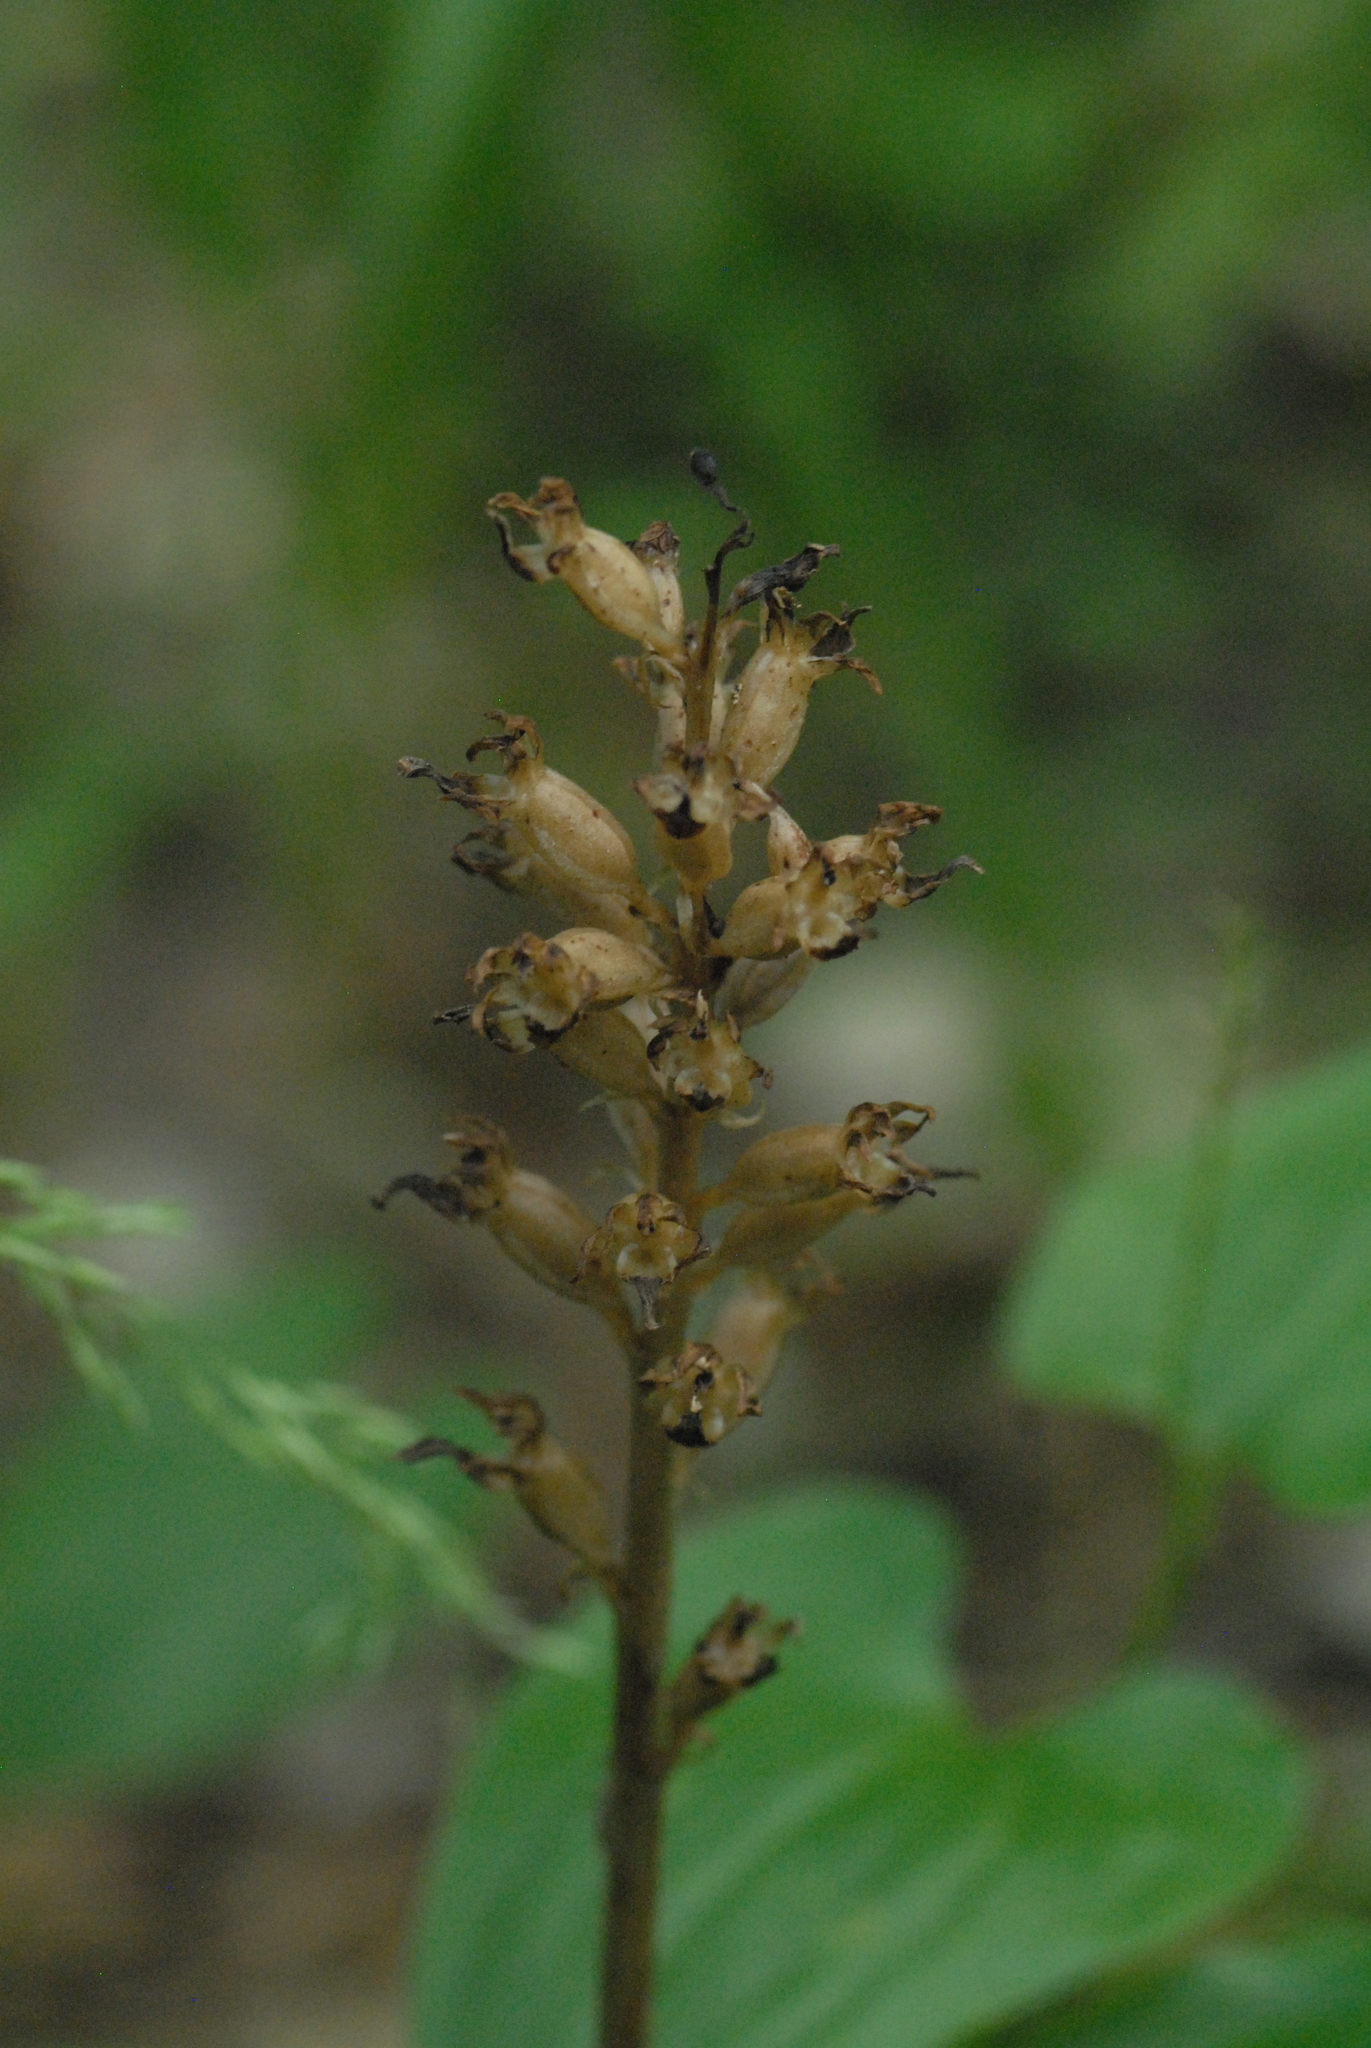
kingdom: Plantae
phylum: Tracheophyta
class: Liliopsida
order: Asparagales
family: Orchidaceae
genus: Neottia
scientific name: Neottia nidus-avis
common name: Bird's-nest orchid
